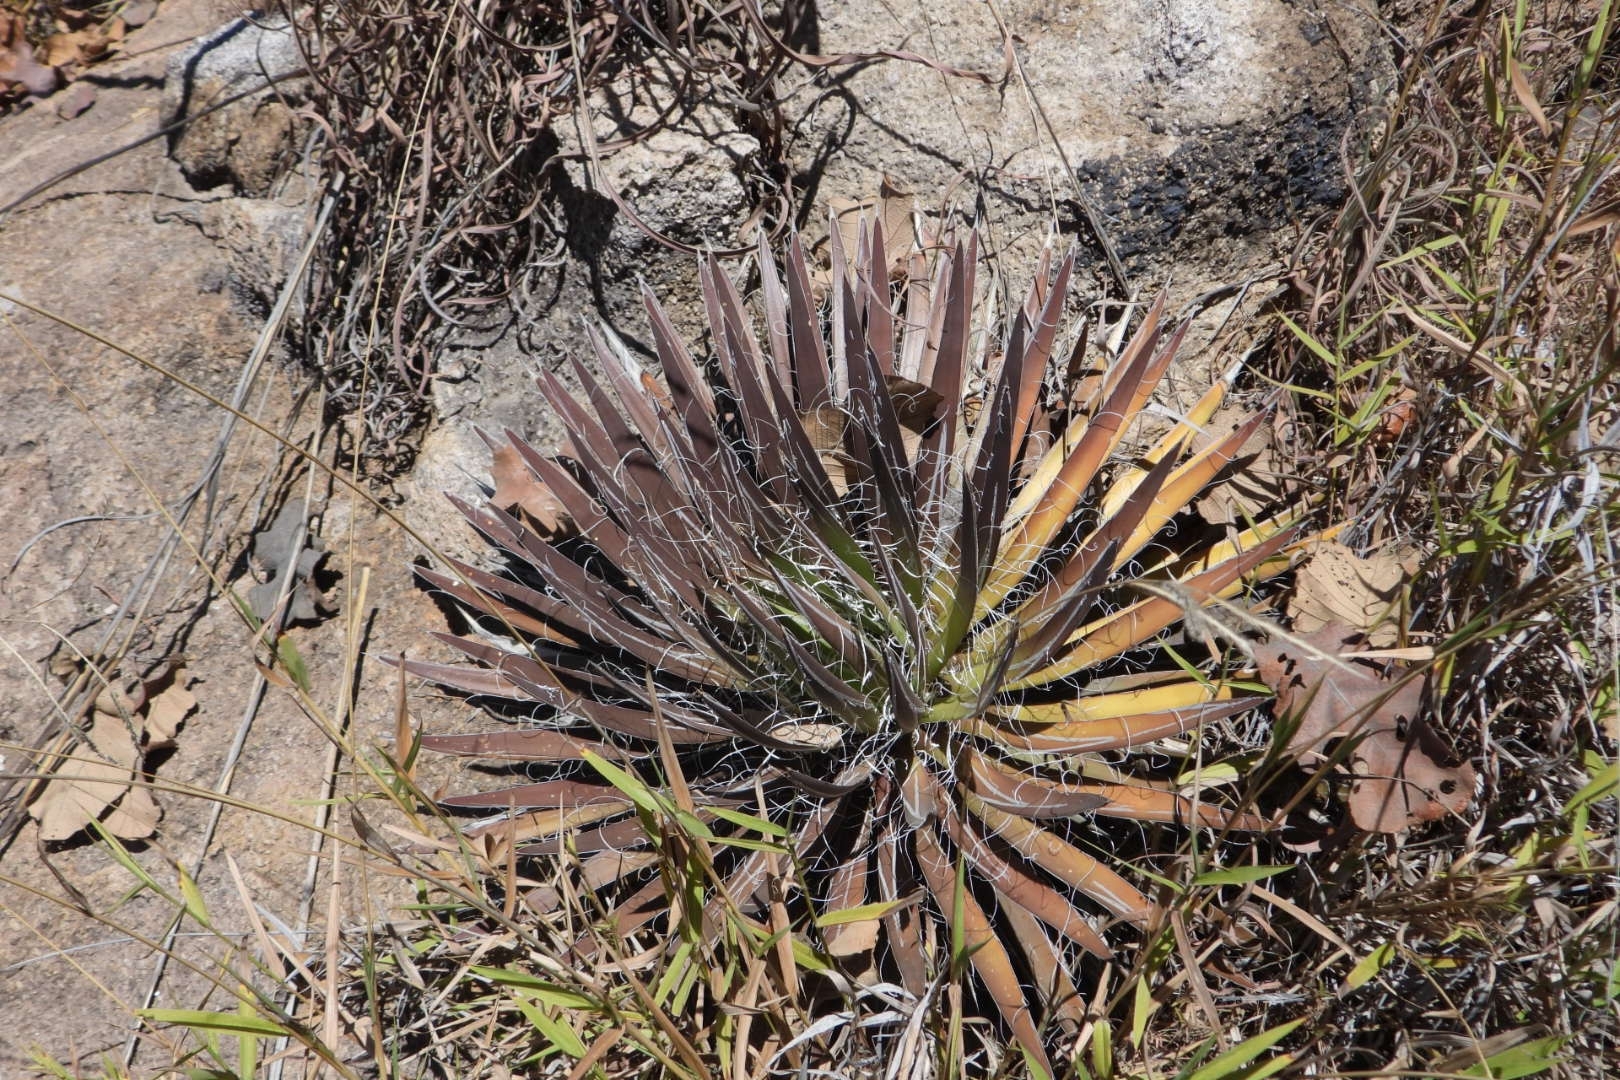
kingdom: Plantae
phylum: Tracheophyta
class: Liliopsida
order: Asparagales
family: Asparagaceae
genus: Agave
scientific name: Agave schidigera
